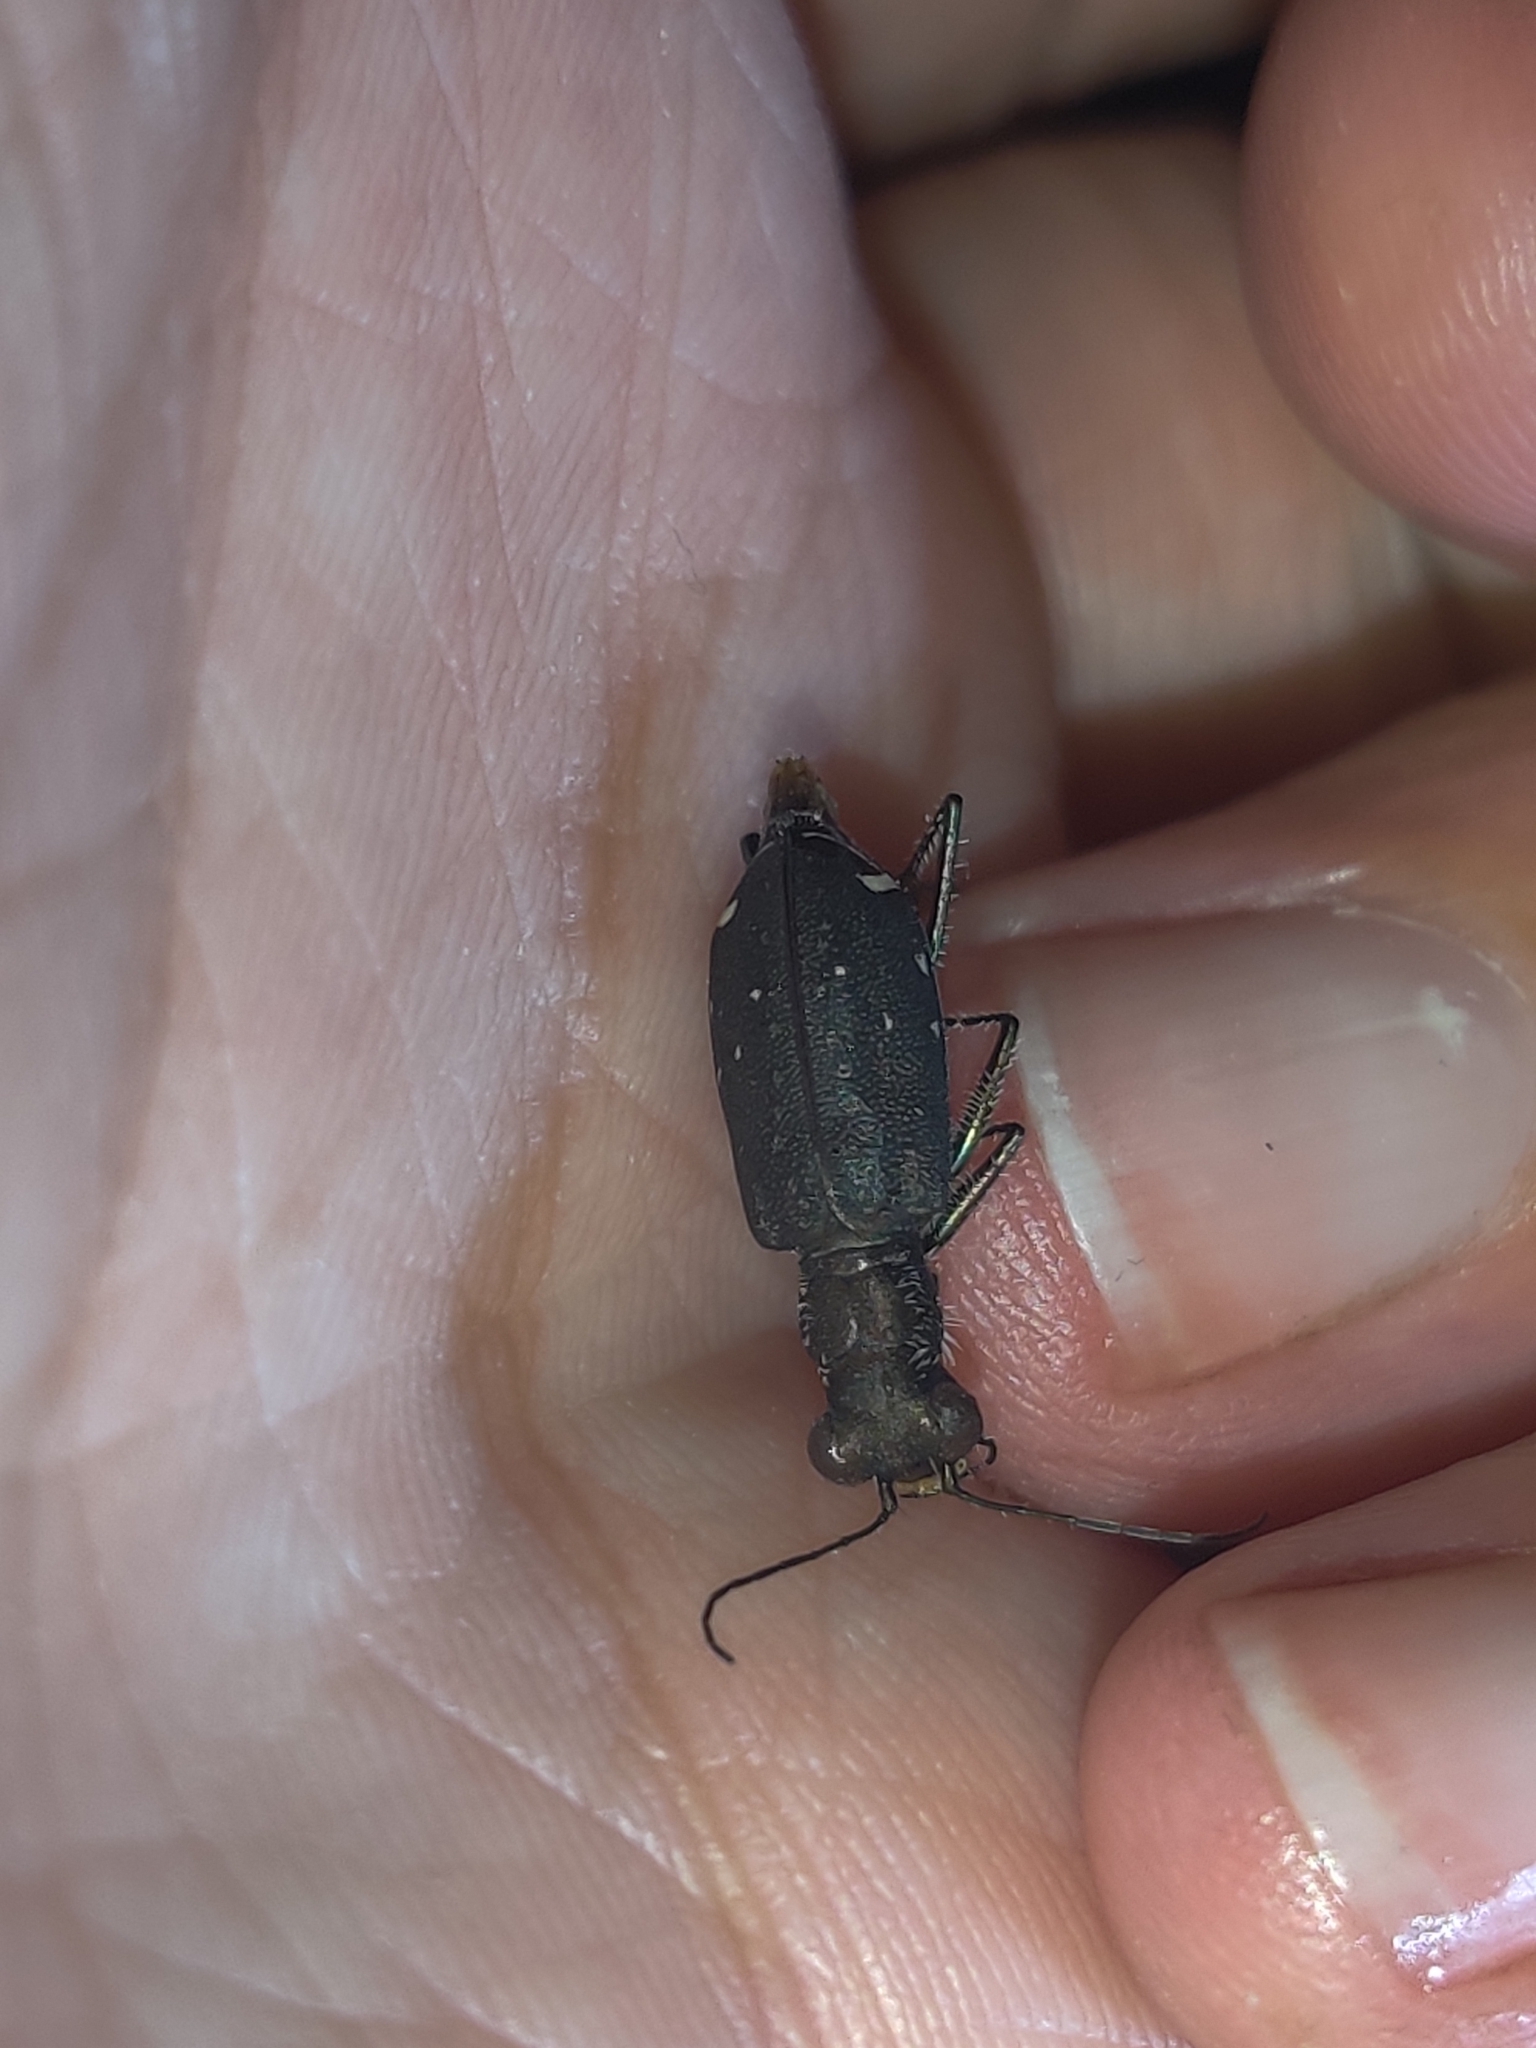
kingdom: Animalia
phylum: Arthropoda
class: Insecta
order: Coleoptera
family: Carabidae
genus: Cicindela
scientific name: Cicindela punctulata
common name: Punctured tiger beetle
